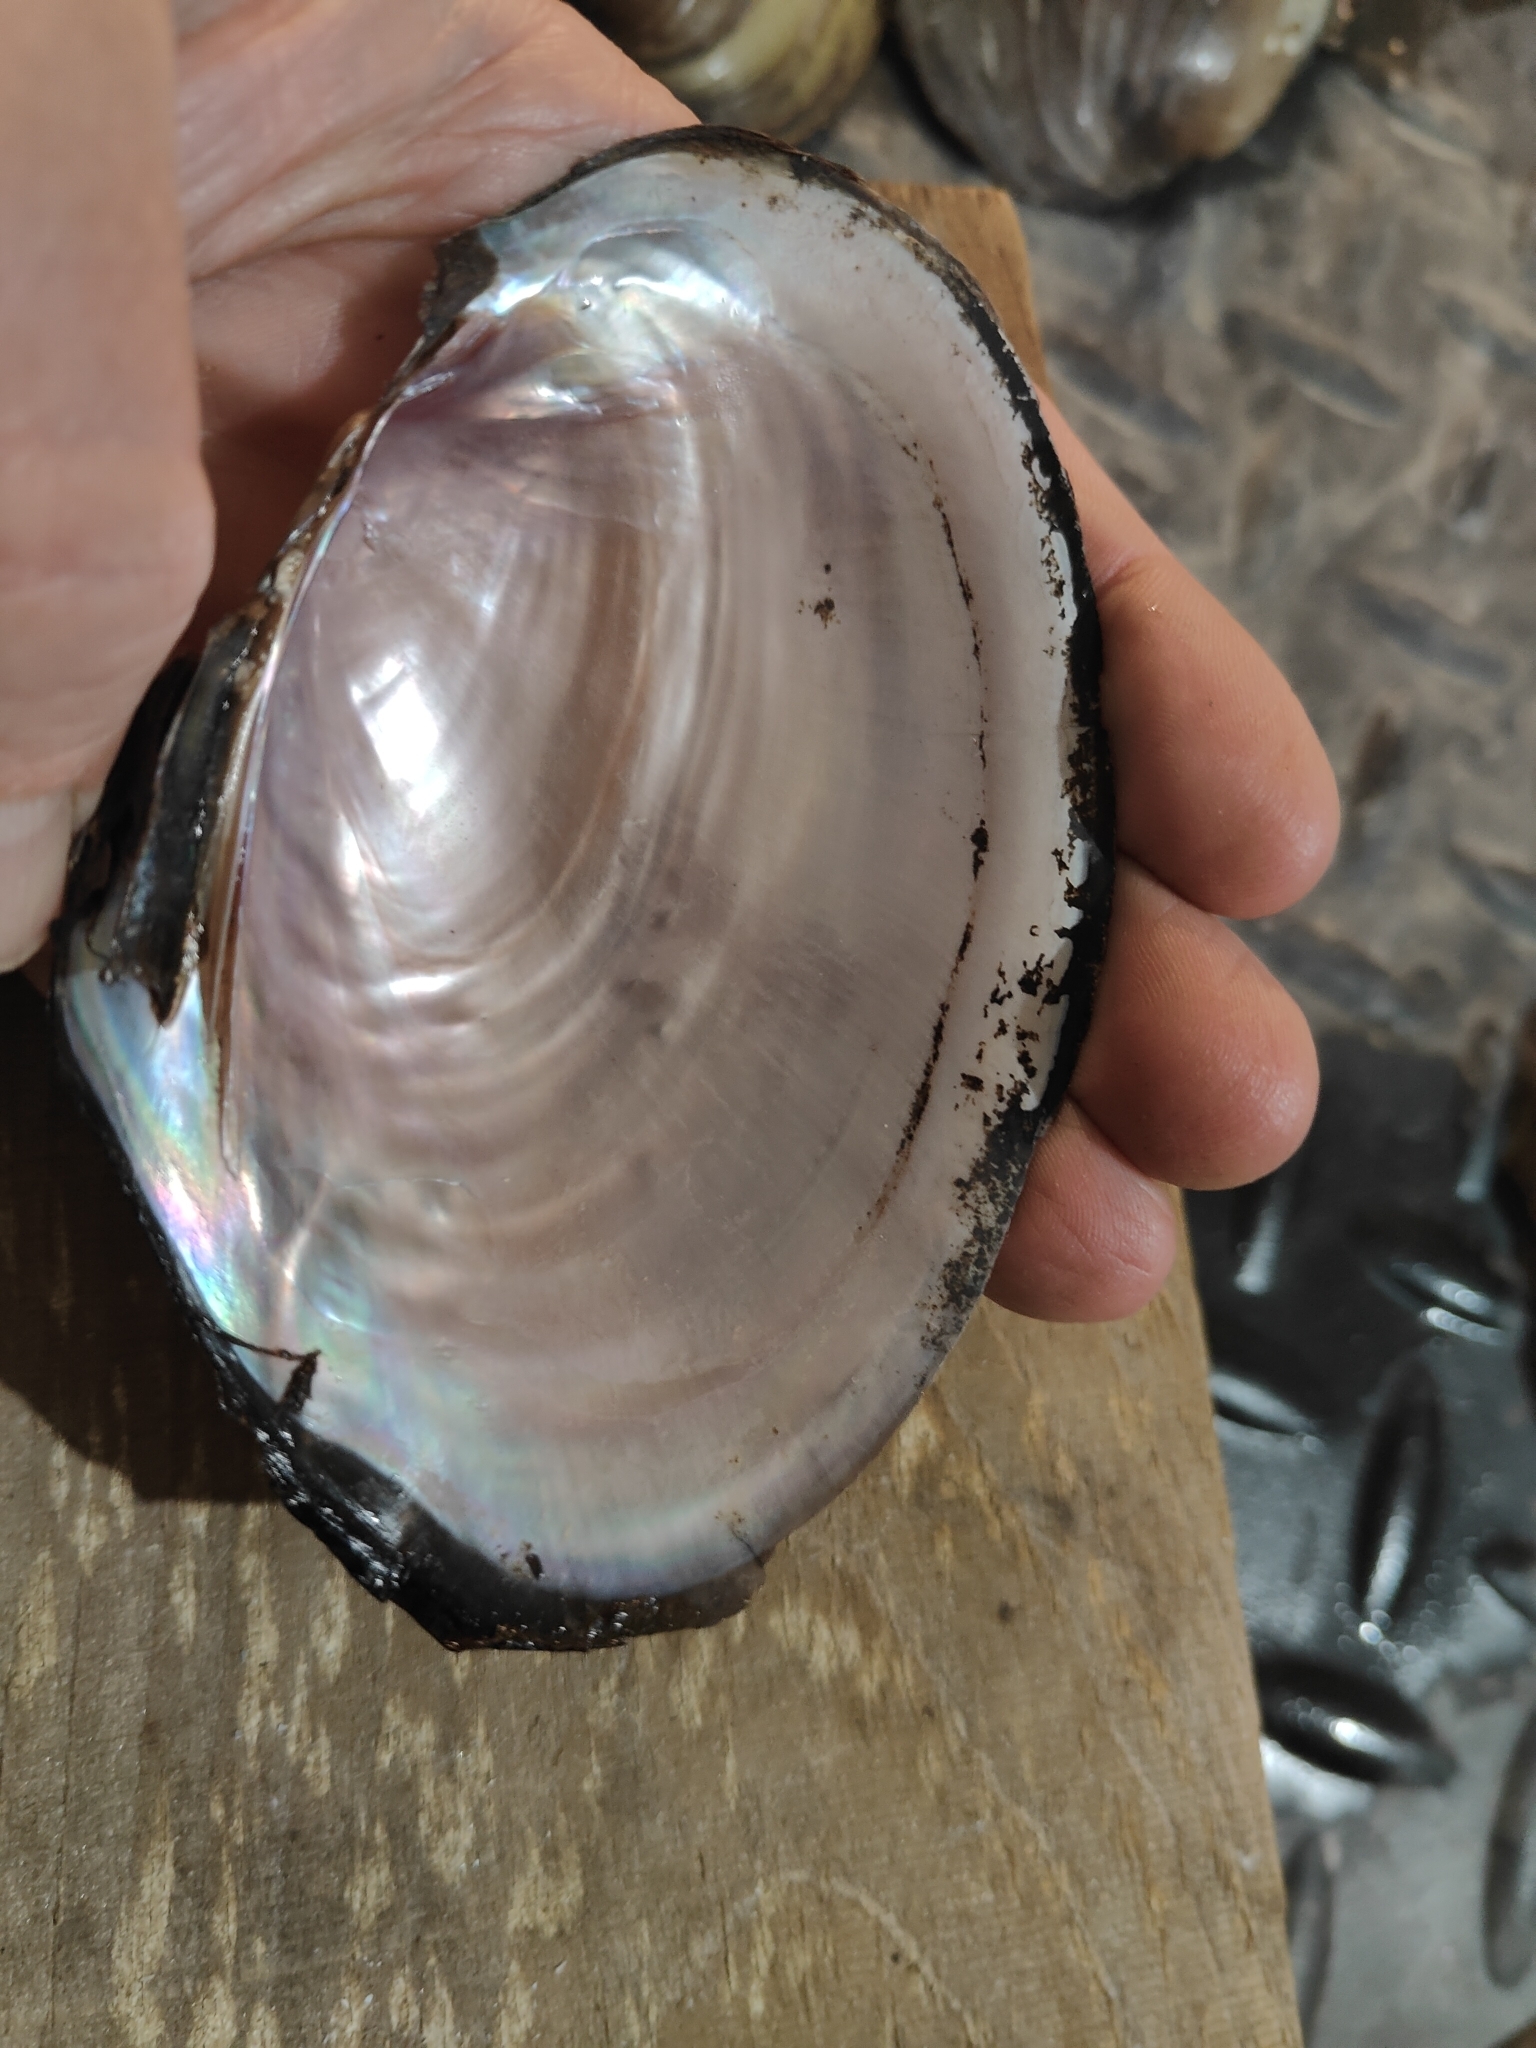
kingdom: Animalia
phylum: Mollusca
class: Bivalvia
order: Unionida
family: Unionidae
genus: Potamilus
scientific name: Potamilus ohiensis
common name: Pink papershell
